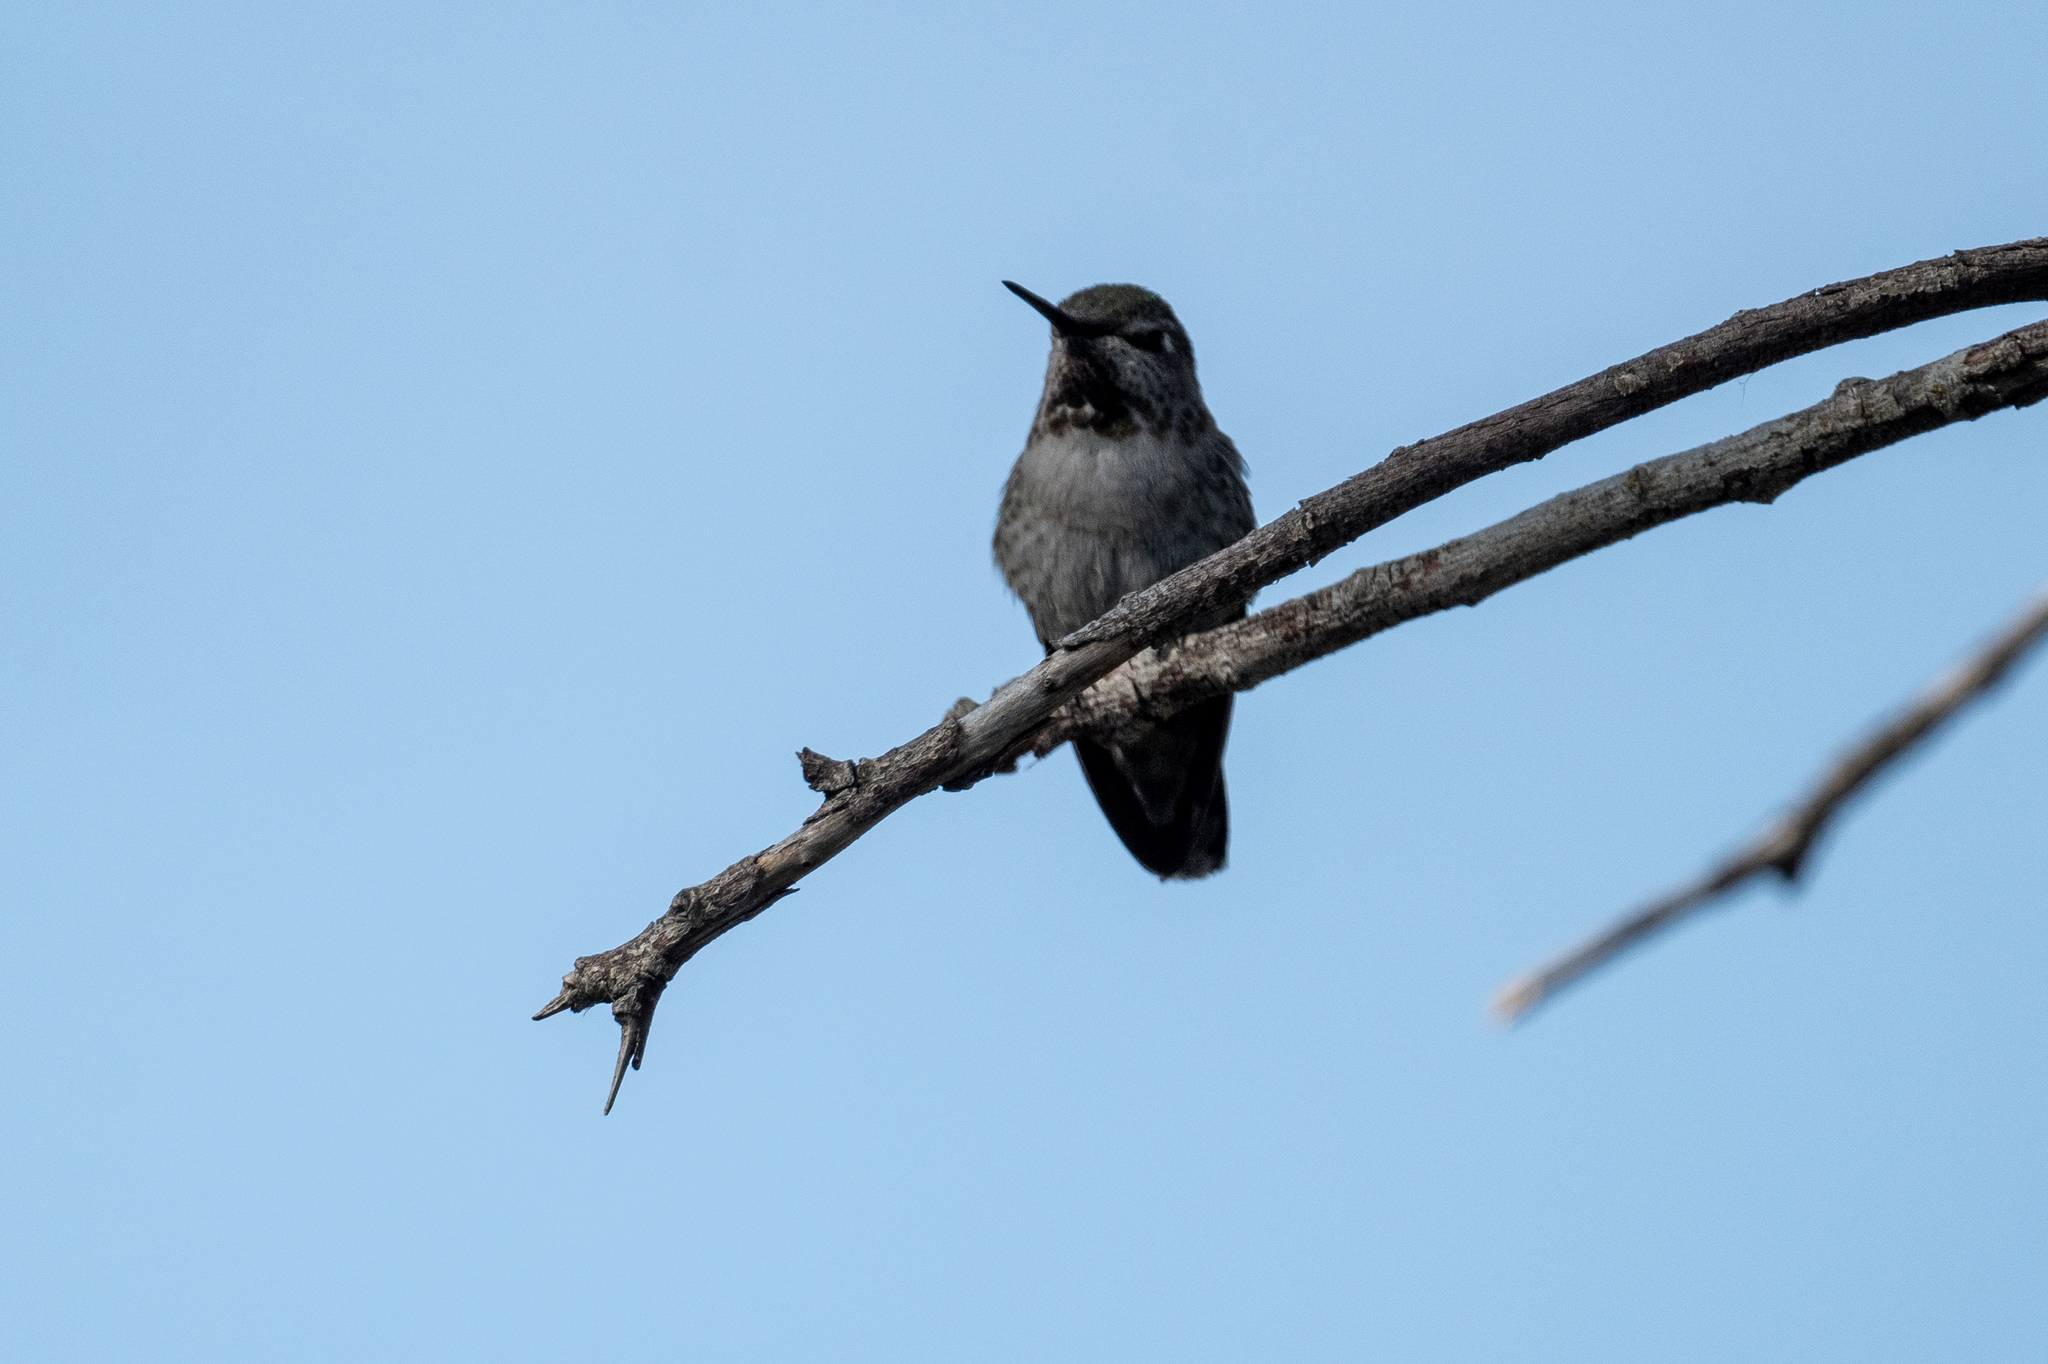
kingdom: Animalia
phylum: Chordata
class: Aves
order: Apodiformes
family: Trochilidae
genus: Calypte
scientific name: Calypte anna
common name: Anna's hummingbird
